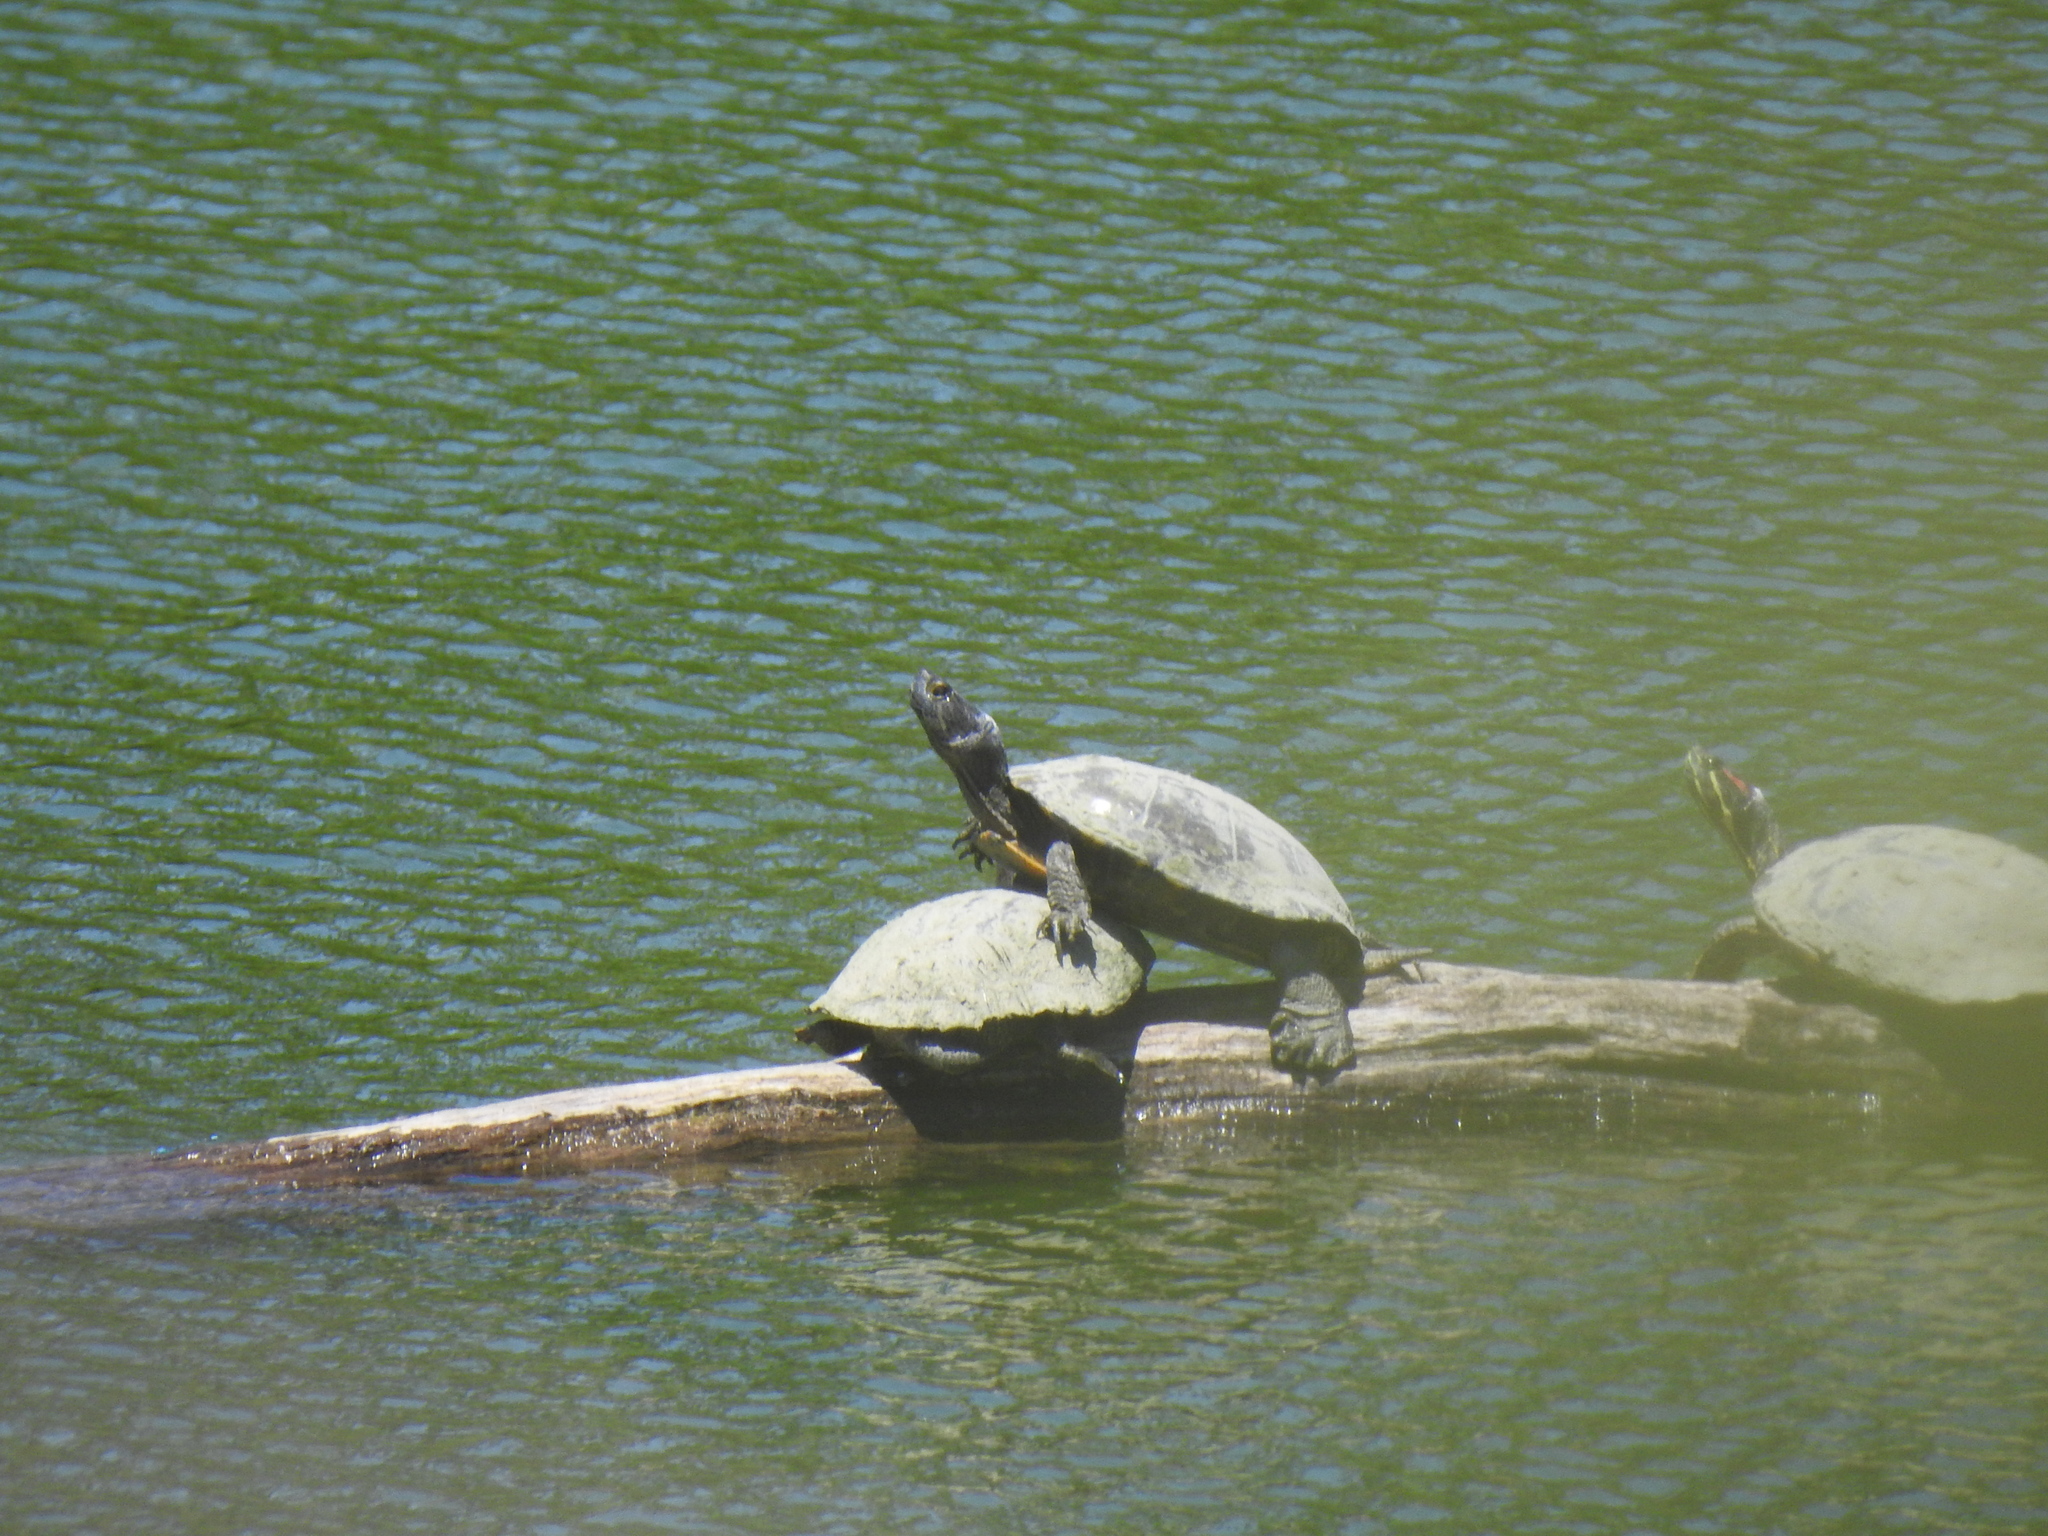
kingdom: Animalia
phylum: Chordata
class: Testudines
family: Emydidae
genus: Trachemys
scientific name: Trachemys scripta
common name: Slider
